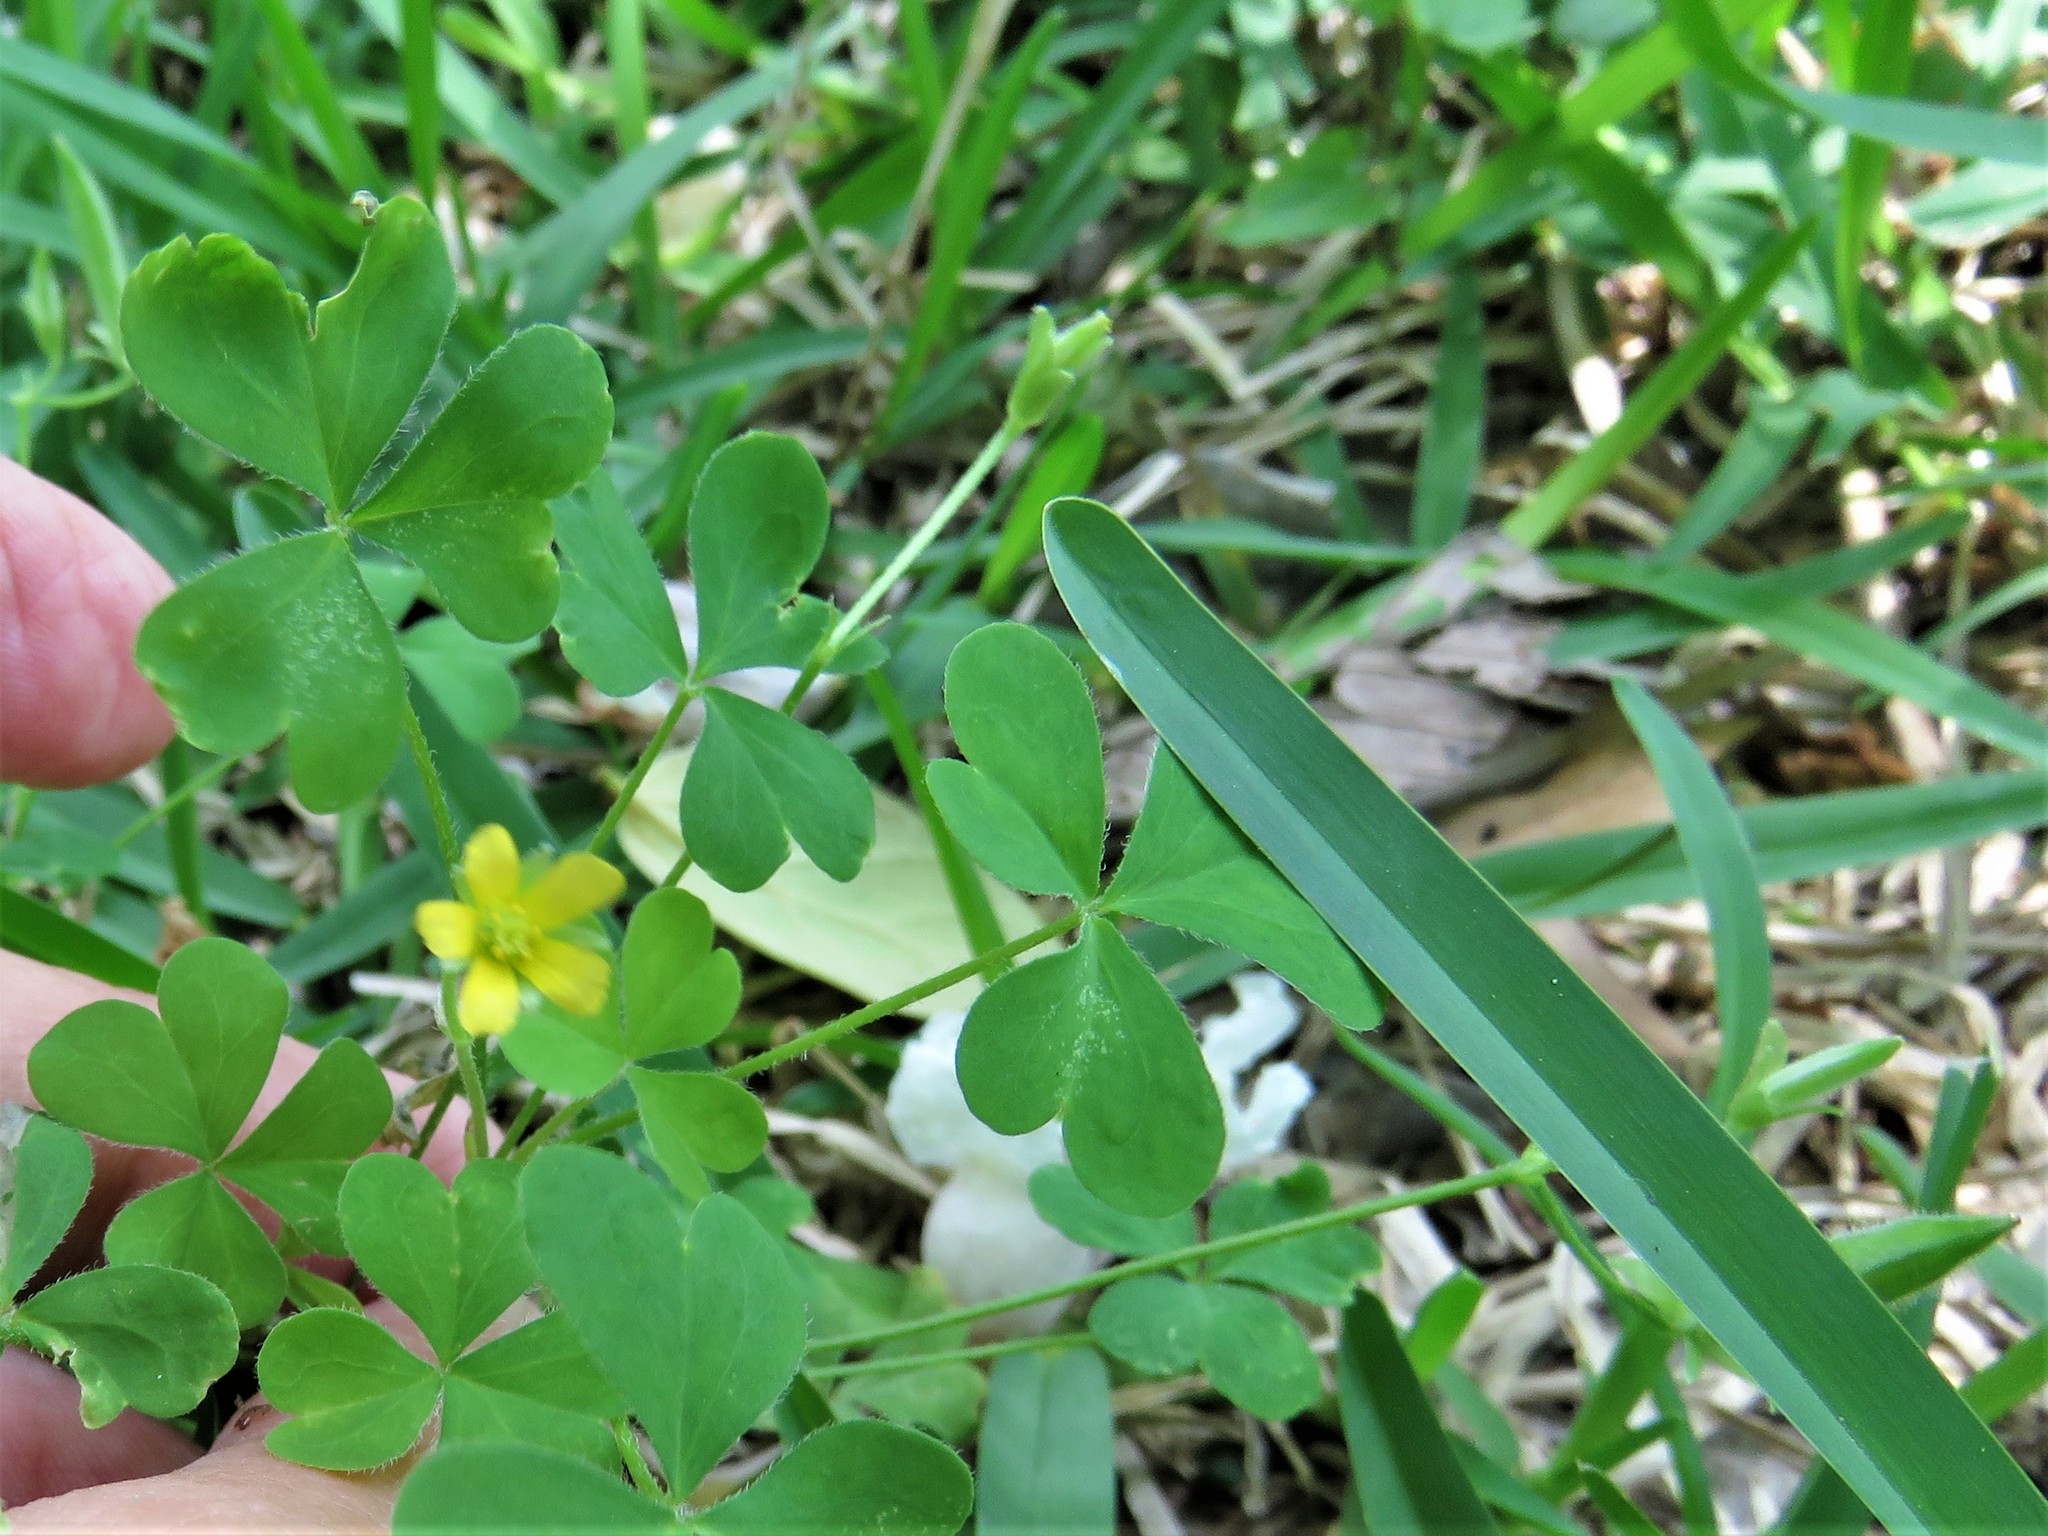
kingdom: Plantae
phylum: Tracheophyta
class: Magnoliopsida
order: Oxalidales
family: Oxalidaceae
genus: Oxalis
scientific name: Oxalis dillenii
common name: Sussex yellow-sorrel
